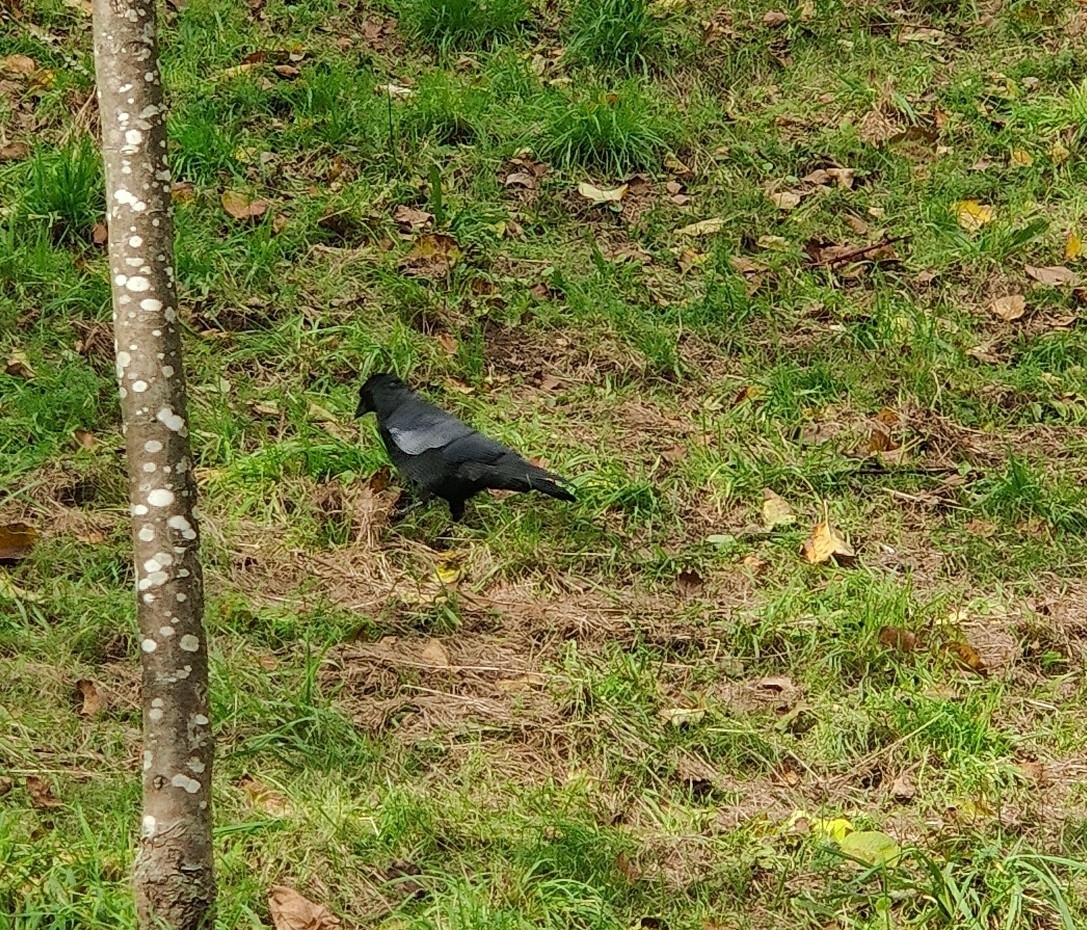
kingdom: Animalia
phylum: Chordata
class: Aves
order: Passeriformes
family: Corvidae
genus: Corvus
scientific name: Corvus corone
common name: Carrion crow
